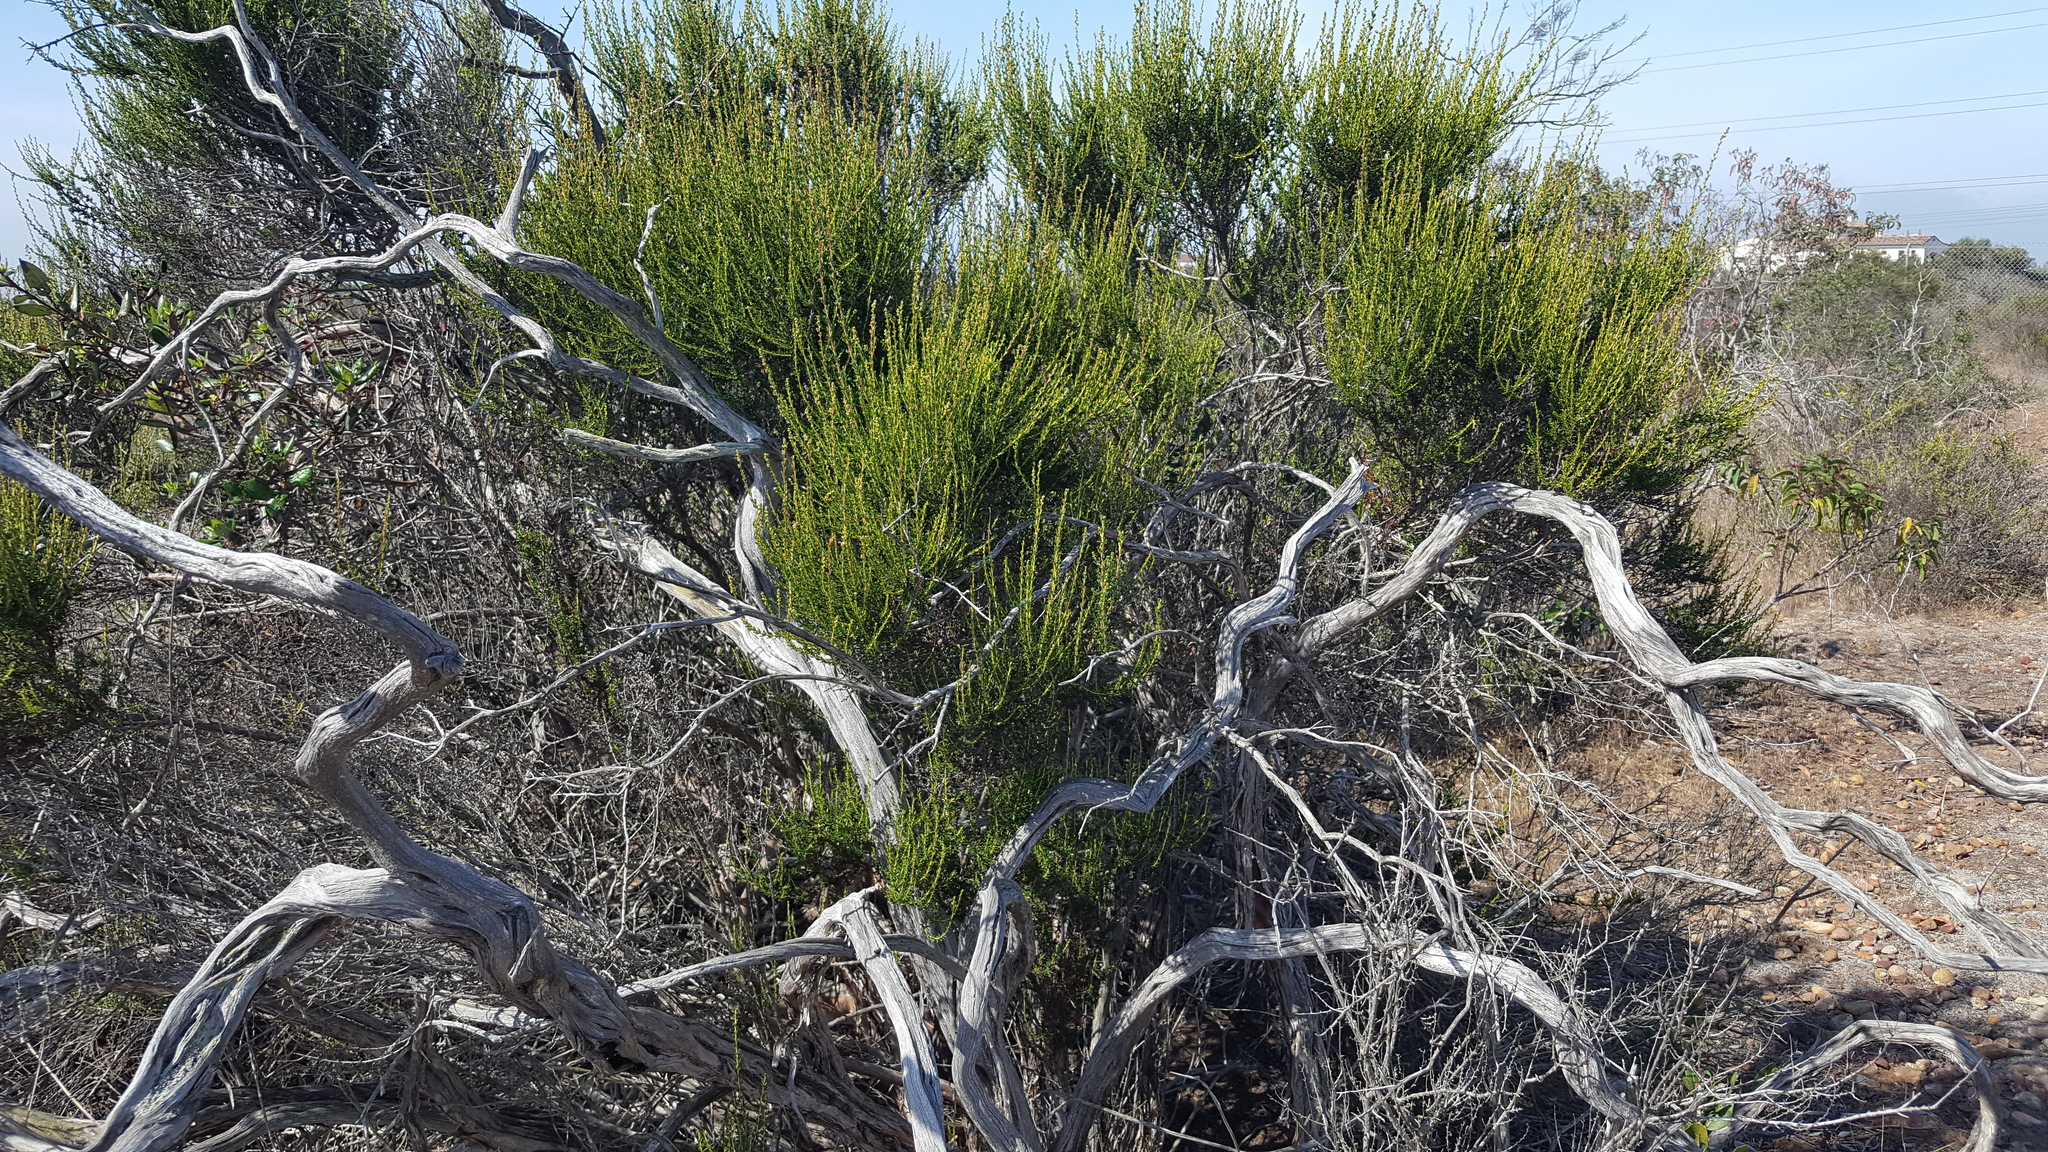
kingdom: Plantae
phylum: Tracheophyta
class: Magnoliopsida
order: Rosales
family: Rosaceae
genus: Adenostoma
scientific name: Adenostoma fasciculatum
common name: Chamise
